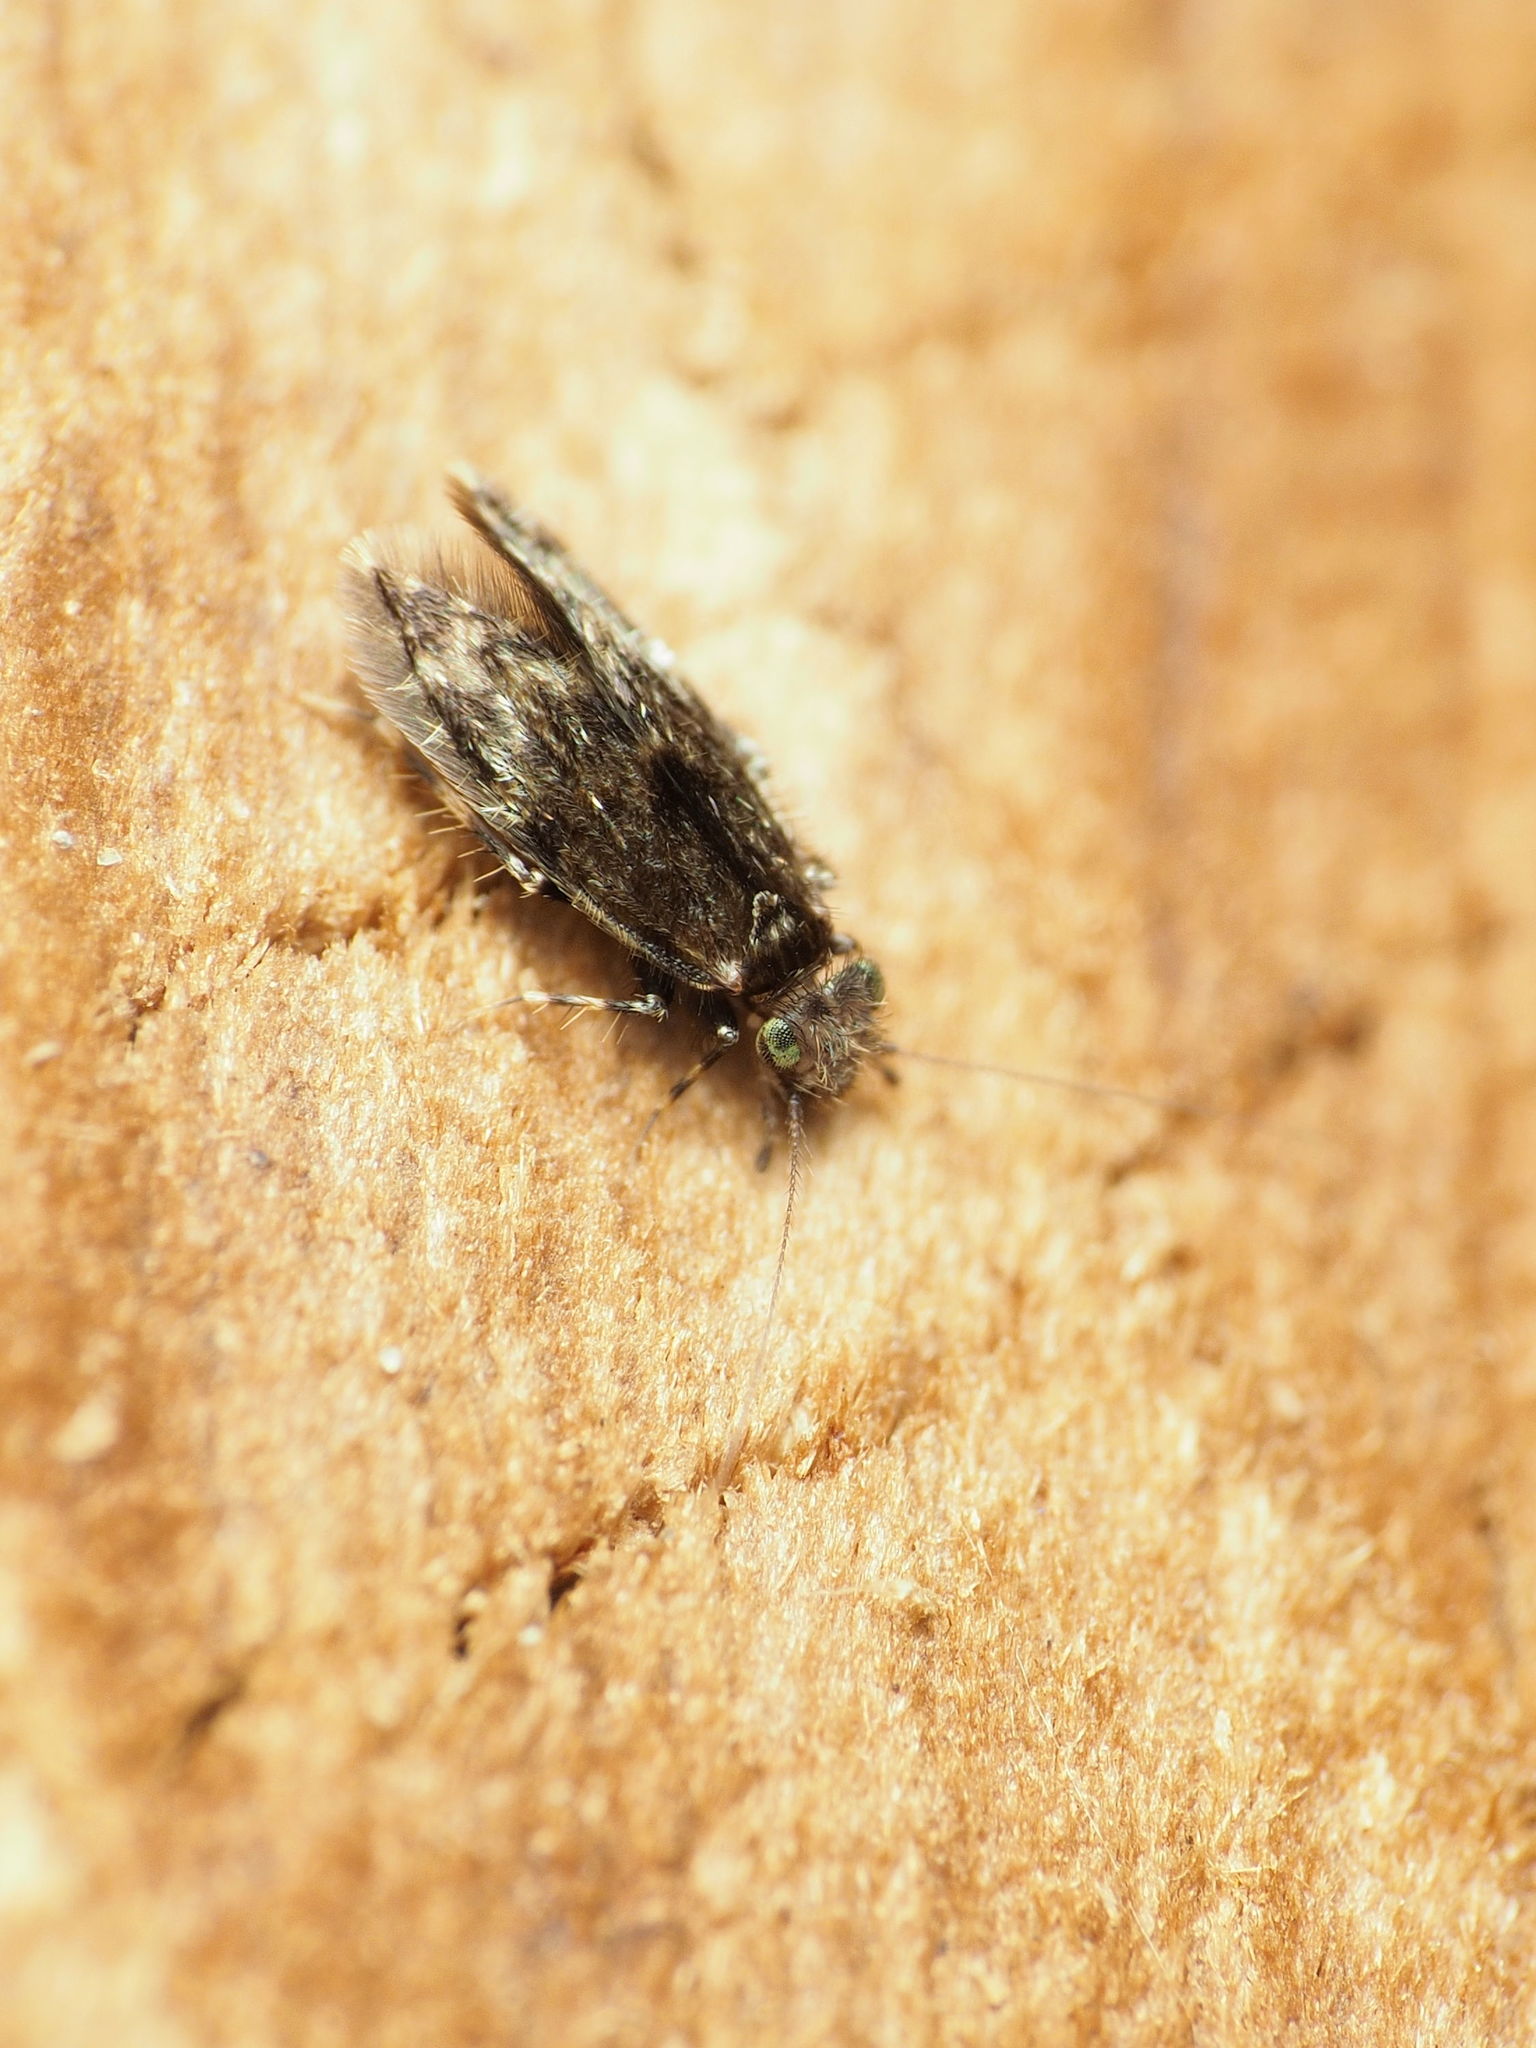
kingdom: Animalia
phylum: Arthropoda
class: Insecta
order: Psocodea
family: Lepidopsocidae
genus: Echmepteryx
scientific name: Echmepteryx hageni
